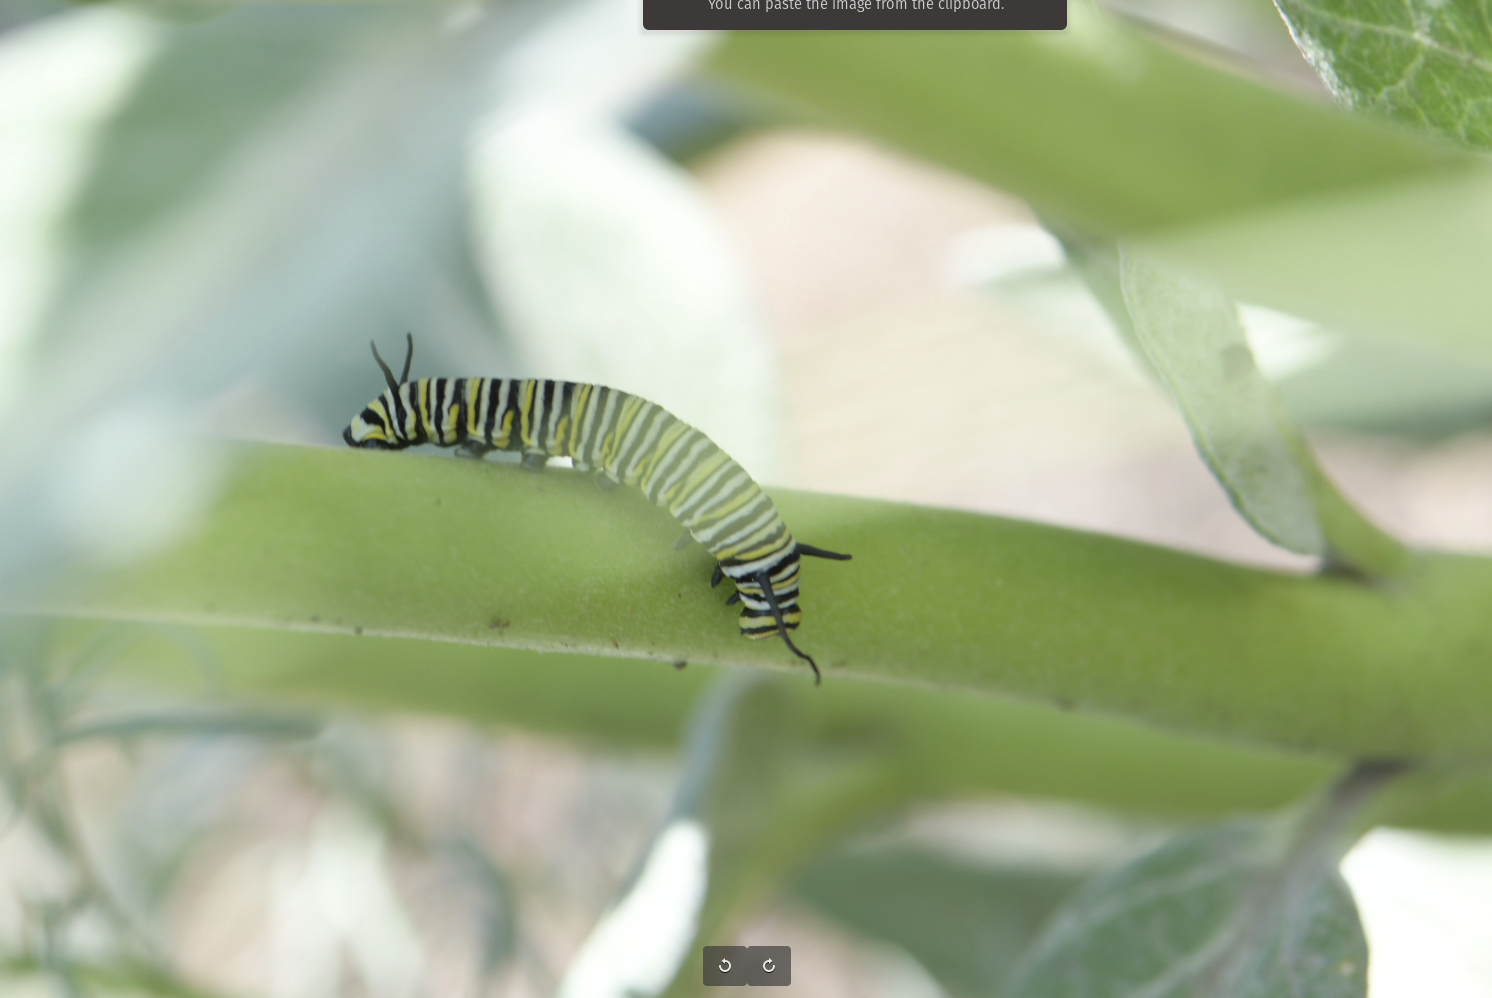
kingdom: Animalia
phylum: Arthropoda
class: Insecta
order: Lepidoptera
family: Nymphalidae
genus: Danaus
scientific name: Danaus plexippus
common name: Monarch
